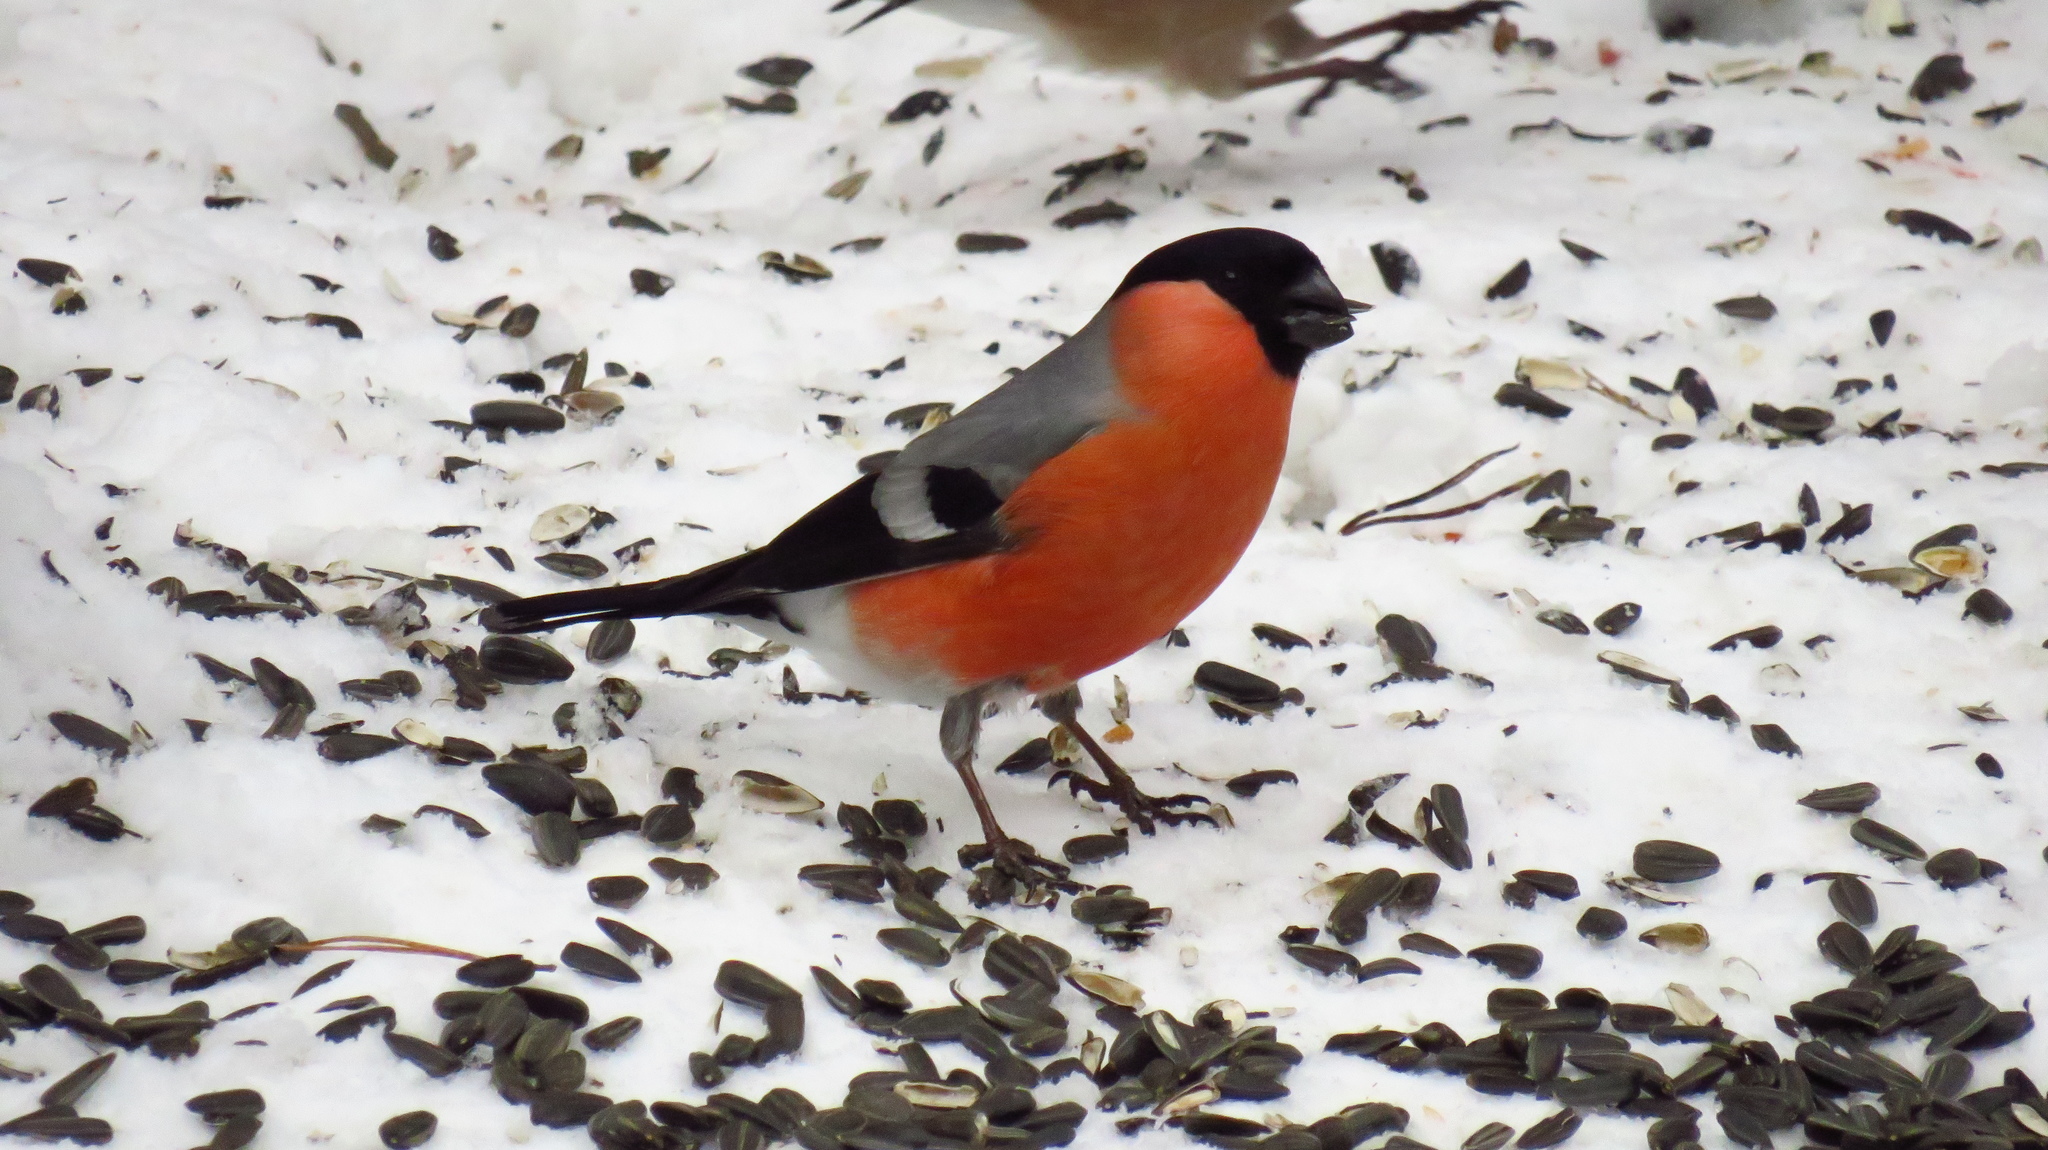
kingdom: Animalia
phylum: Chordata
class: Aves
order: Passeriformes
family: Fringillidae
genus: Pyrrhula
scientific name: Pyrrhula pyrrhula
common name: Eurasian bullfinch
